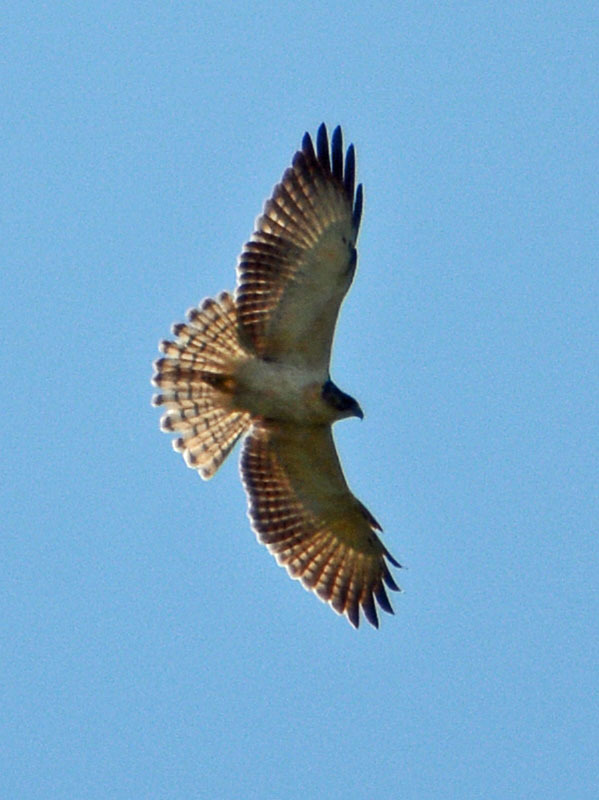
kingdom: Animalia
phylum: Chordata
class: Aves
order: Accipitriformes
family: Accipitridae
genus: Buteo
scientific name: Buteo brachyurus
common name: Short-tailed hawk
